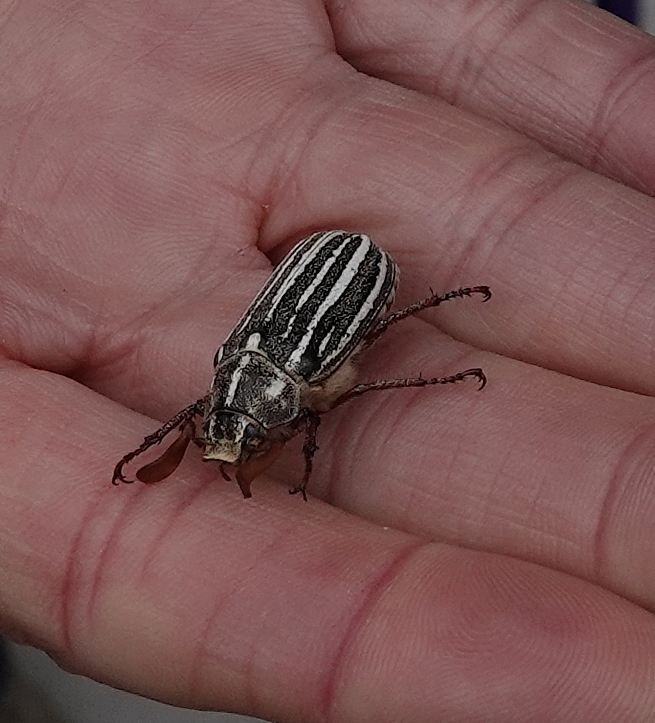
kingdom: Animalia
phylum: Arthropoda
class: Insecta
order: Coleoptera
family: Scarabaeidae
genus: Polyphylla
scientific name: Polyphylla decemlineata
